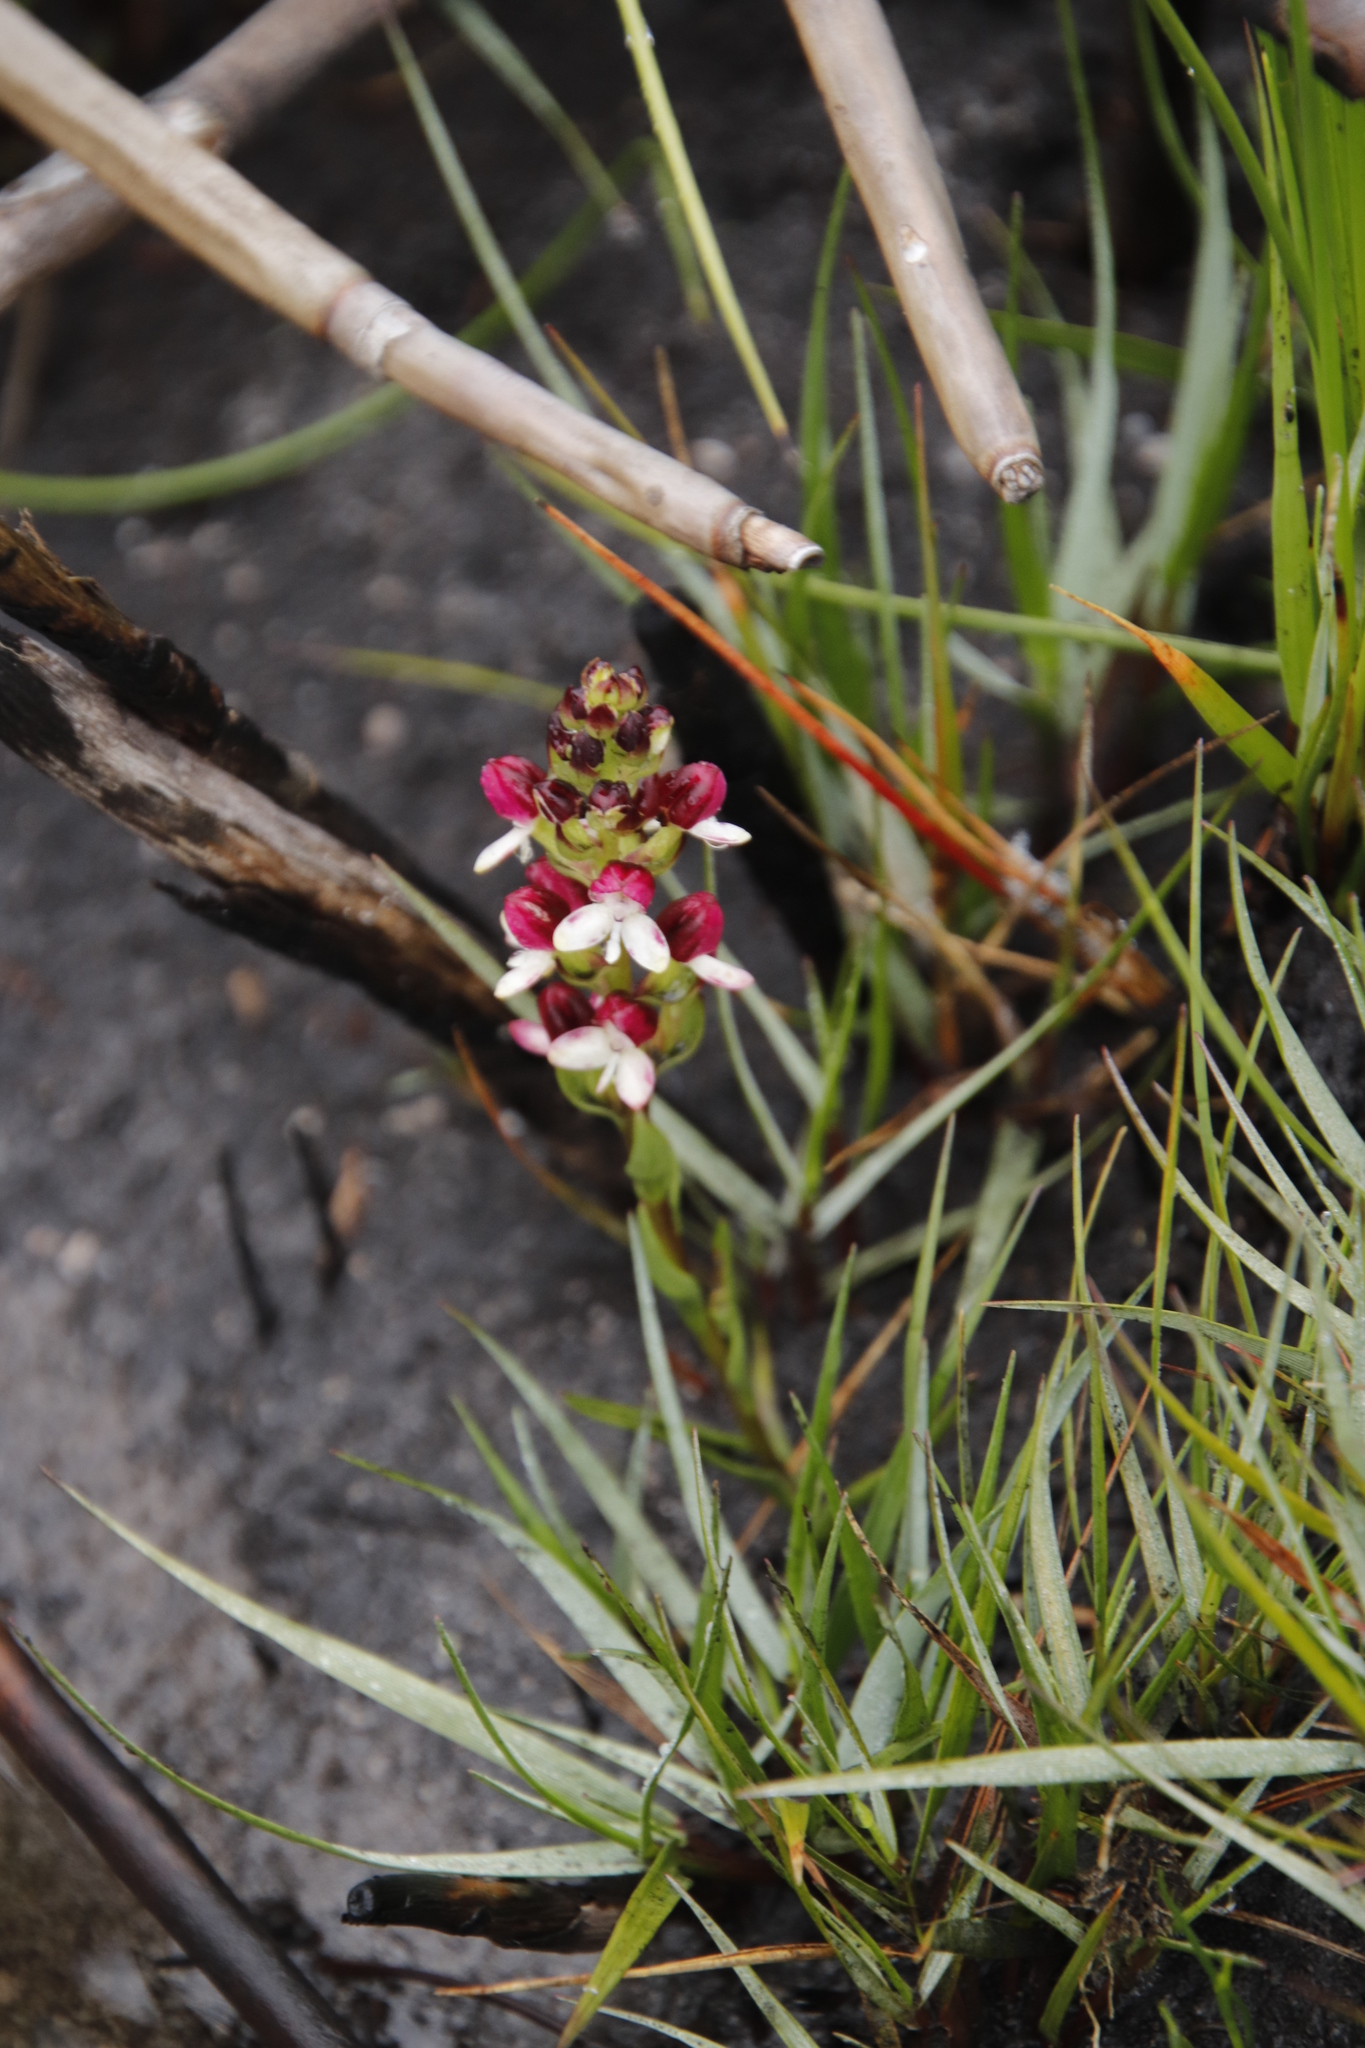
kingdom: Plantae
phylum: Tracheophyta
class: Liliopsida
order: Asparagales
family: Orchidaceae
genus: Disa
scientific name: Disa albomagentea
